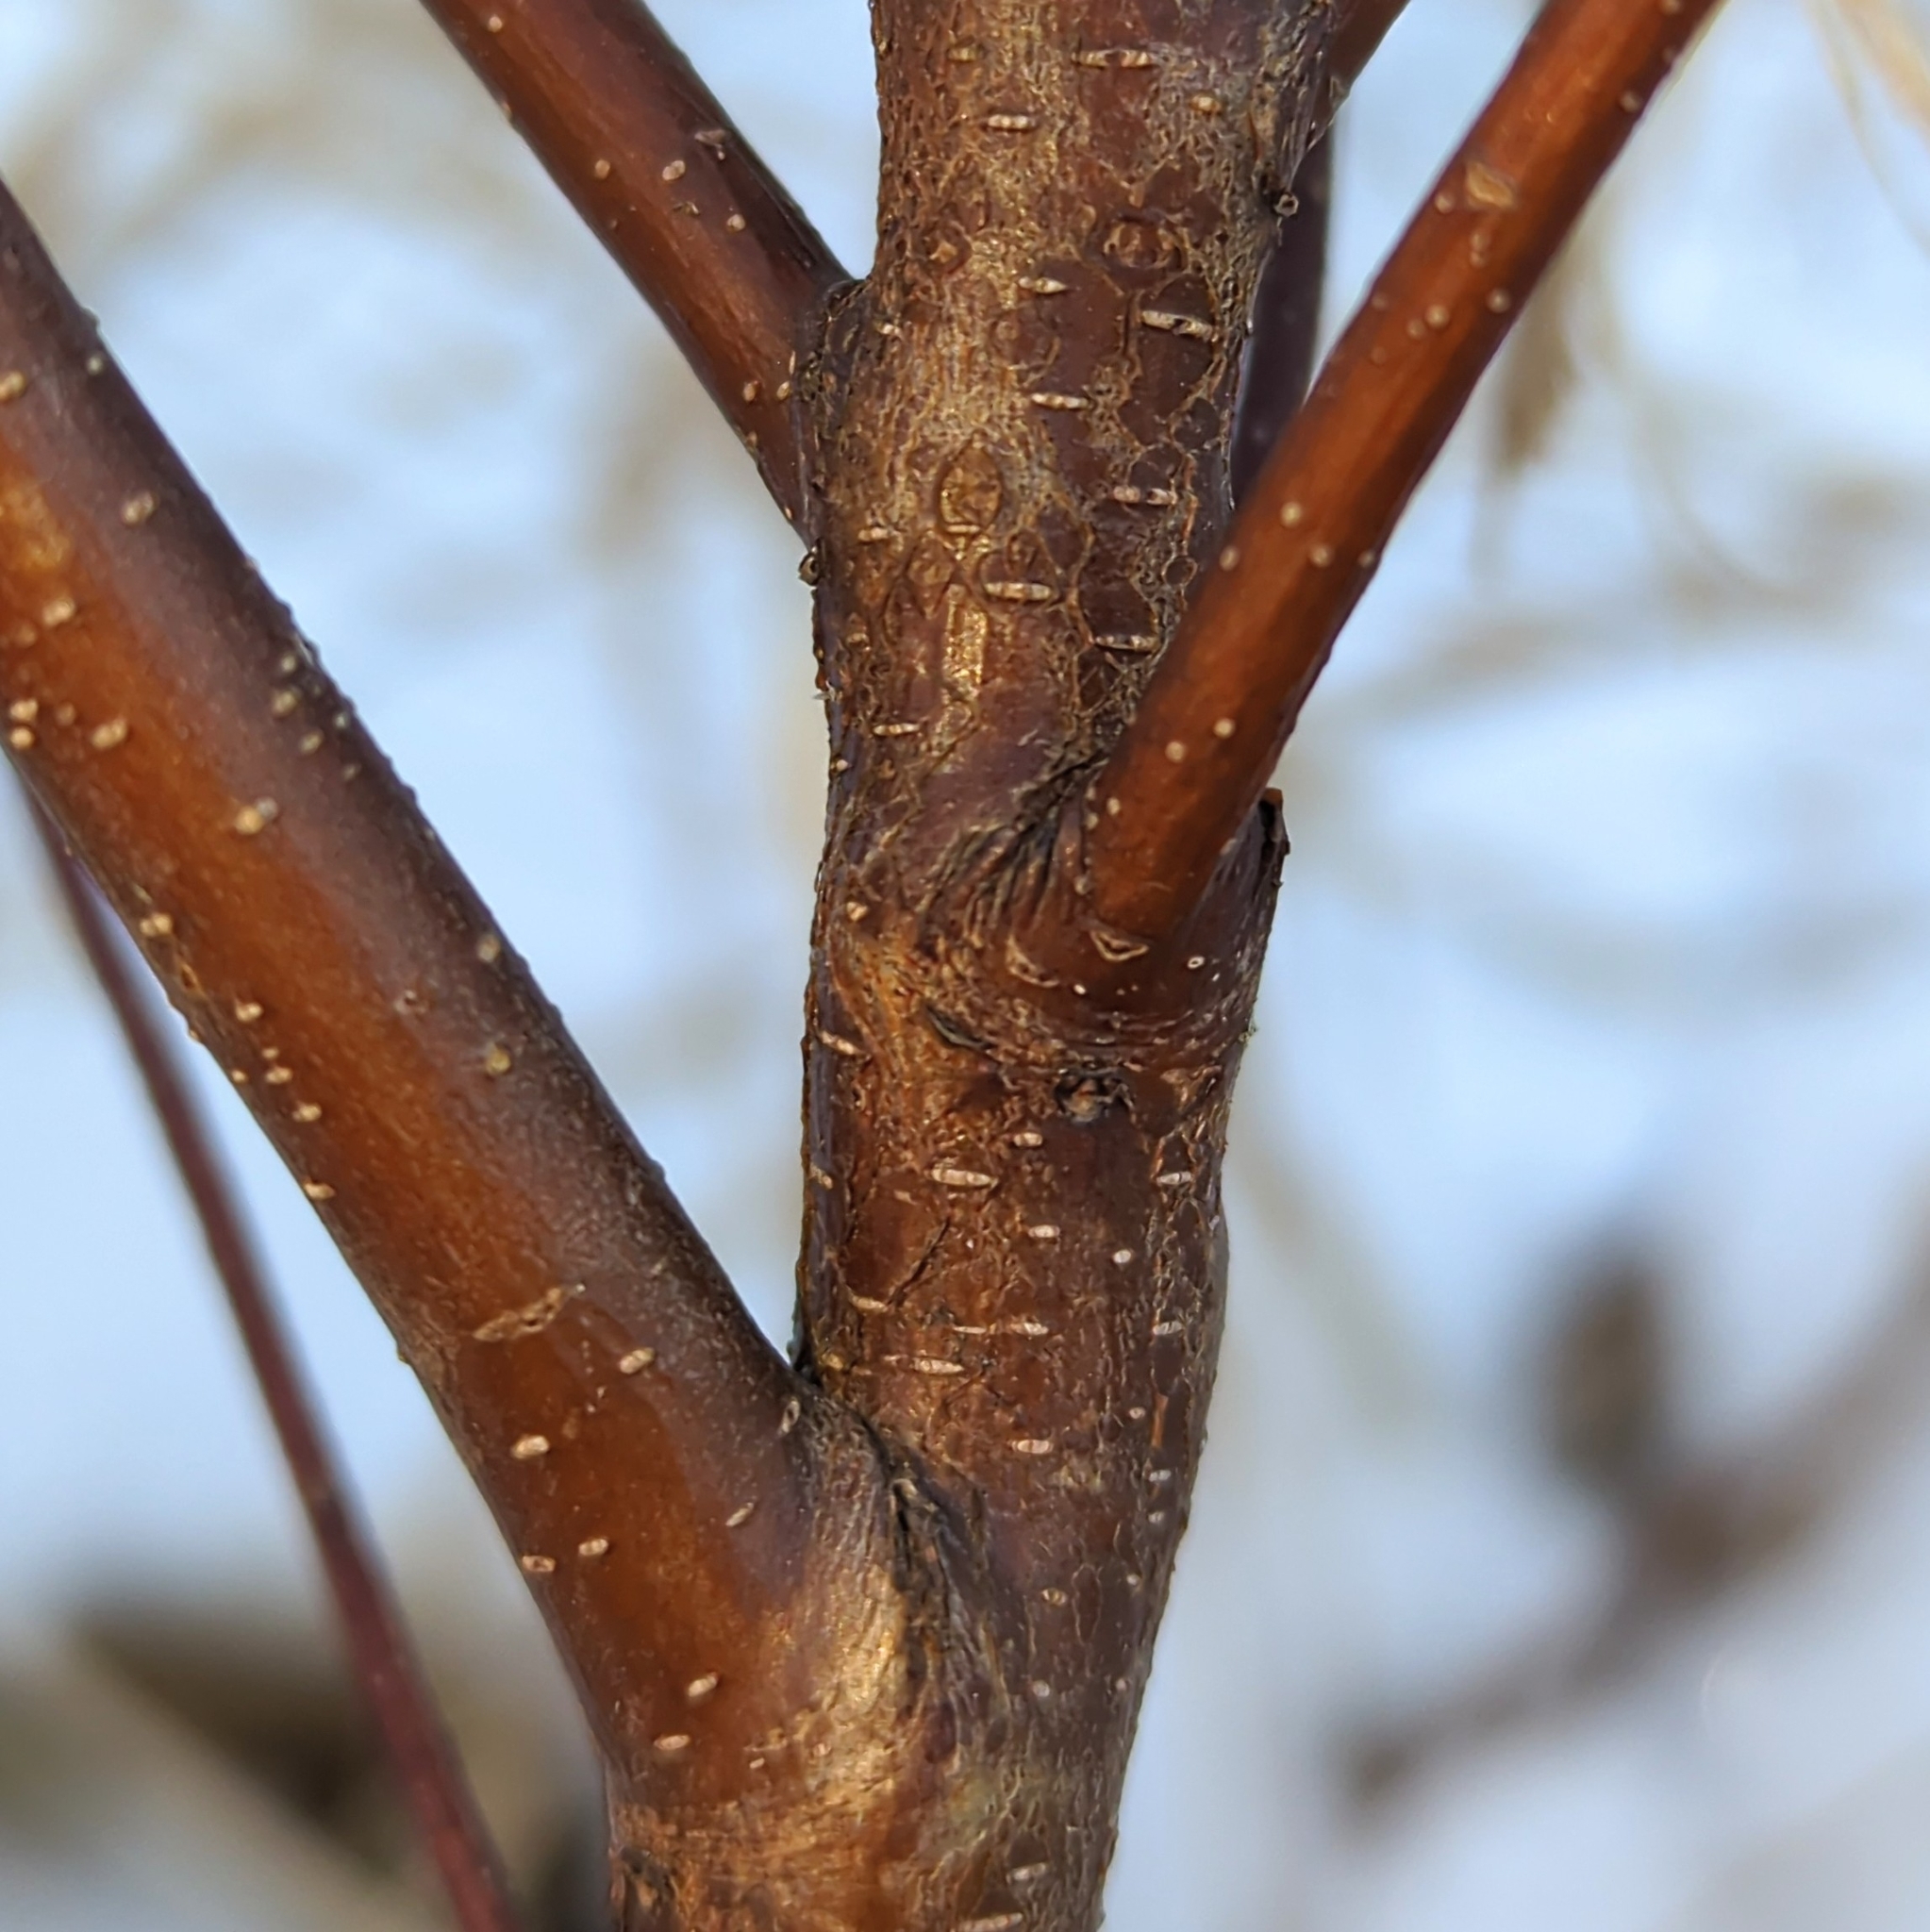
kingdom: Plantae
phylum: Tracheophyta
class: Magnoliopsida
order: Fagales
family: Myricaceae
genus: Myrica
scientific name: Myrica gale
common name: Sweet gale
